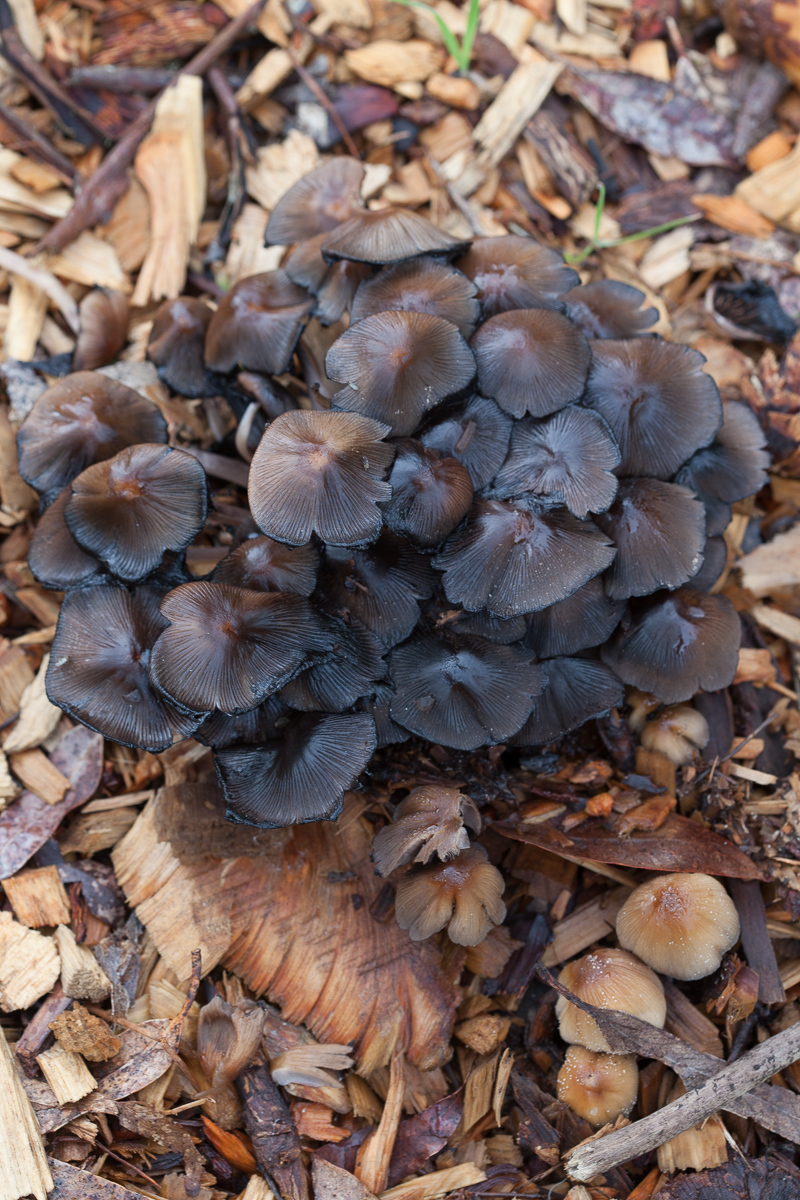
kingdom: Fungi
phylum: Basidiomycota
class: Agaricomycetes
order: Agaricales
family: Psathyrellaceae
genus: Coprinellus
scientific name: Coprinellus micaceus
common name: Glistening ink-cap
